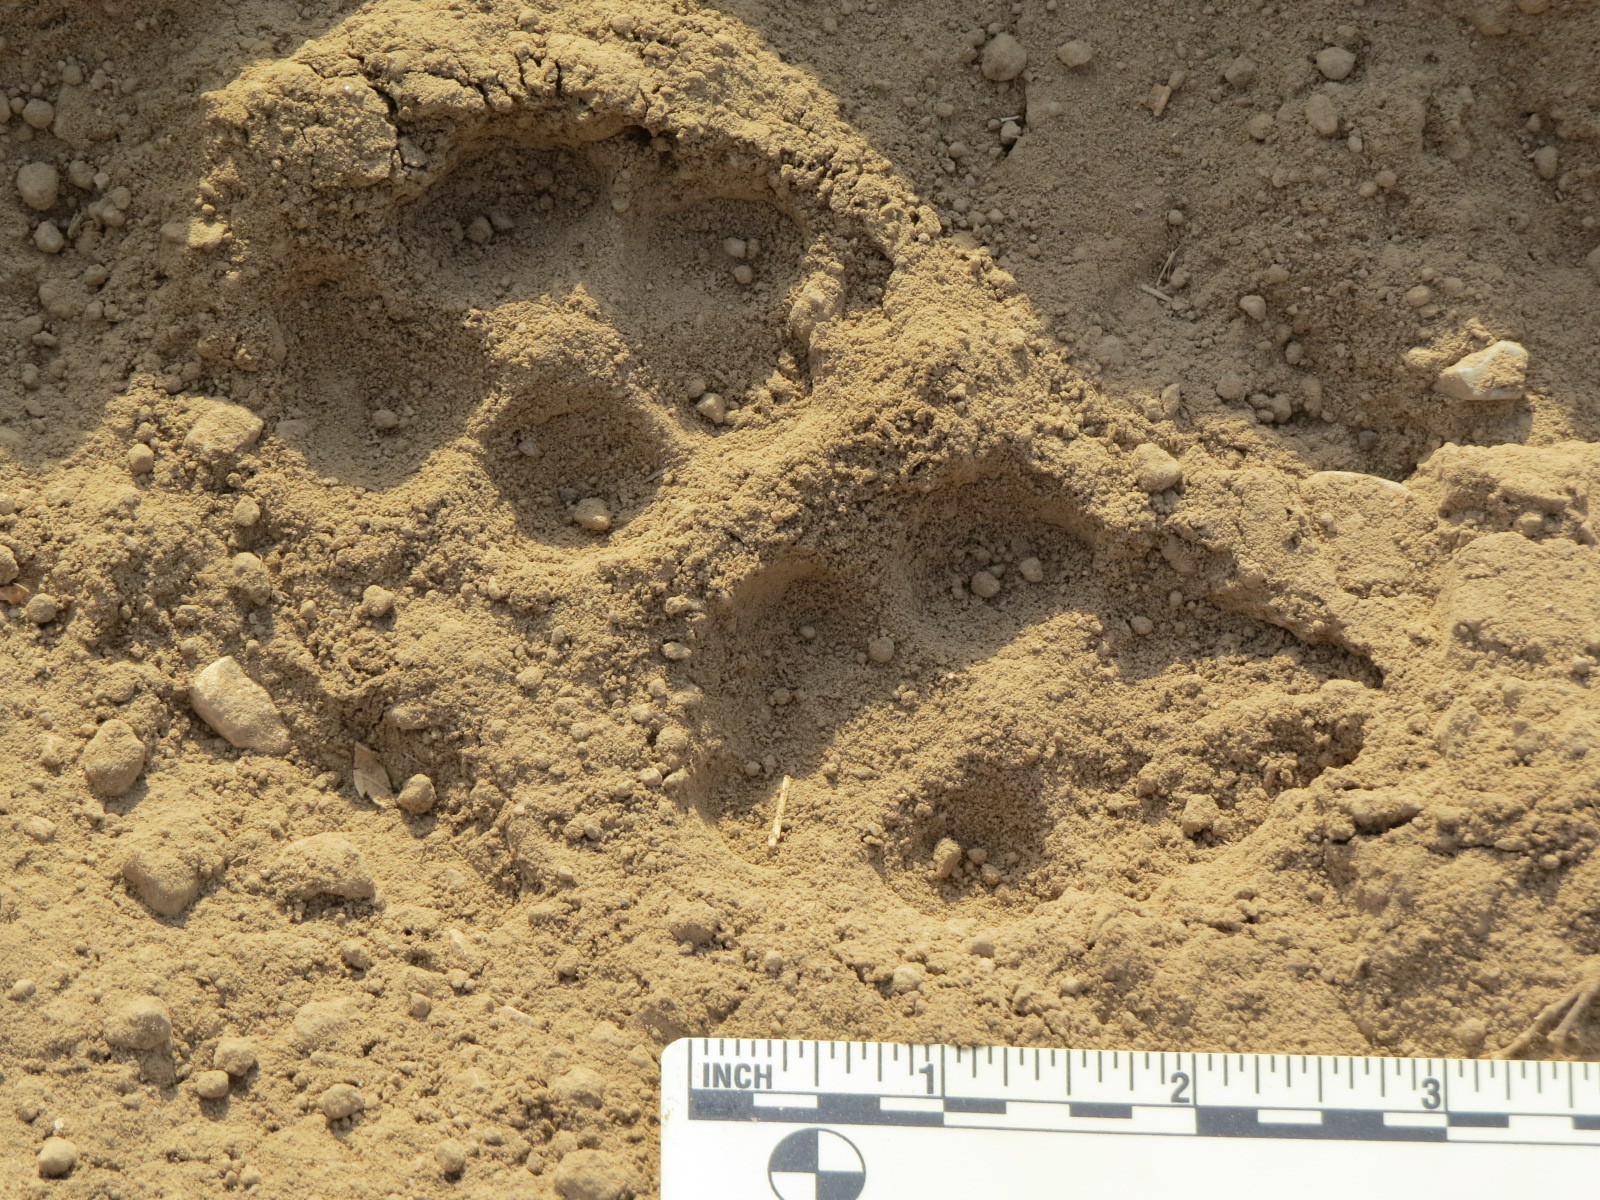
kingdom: Animalia
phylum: Chordata
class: Mammalia
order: Carnivora
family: Canidae
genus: Canis
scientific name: Canis latrans
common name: Coyote
